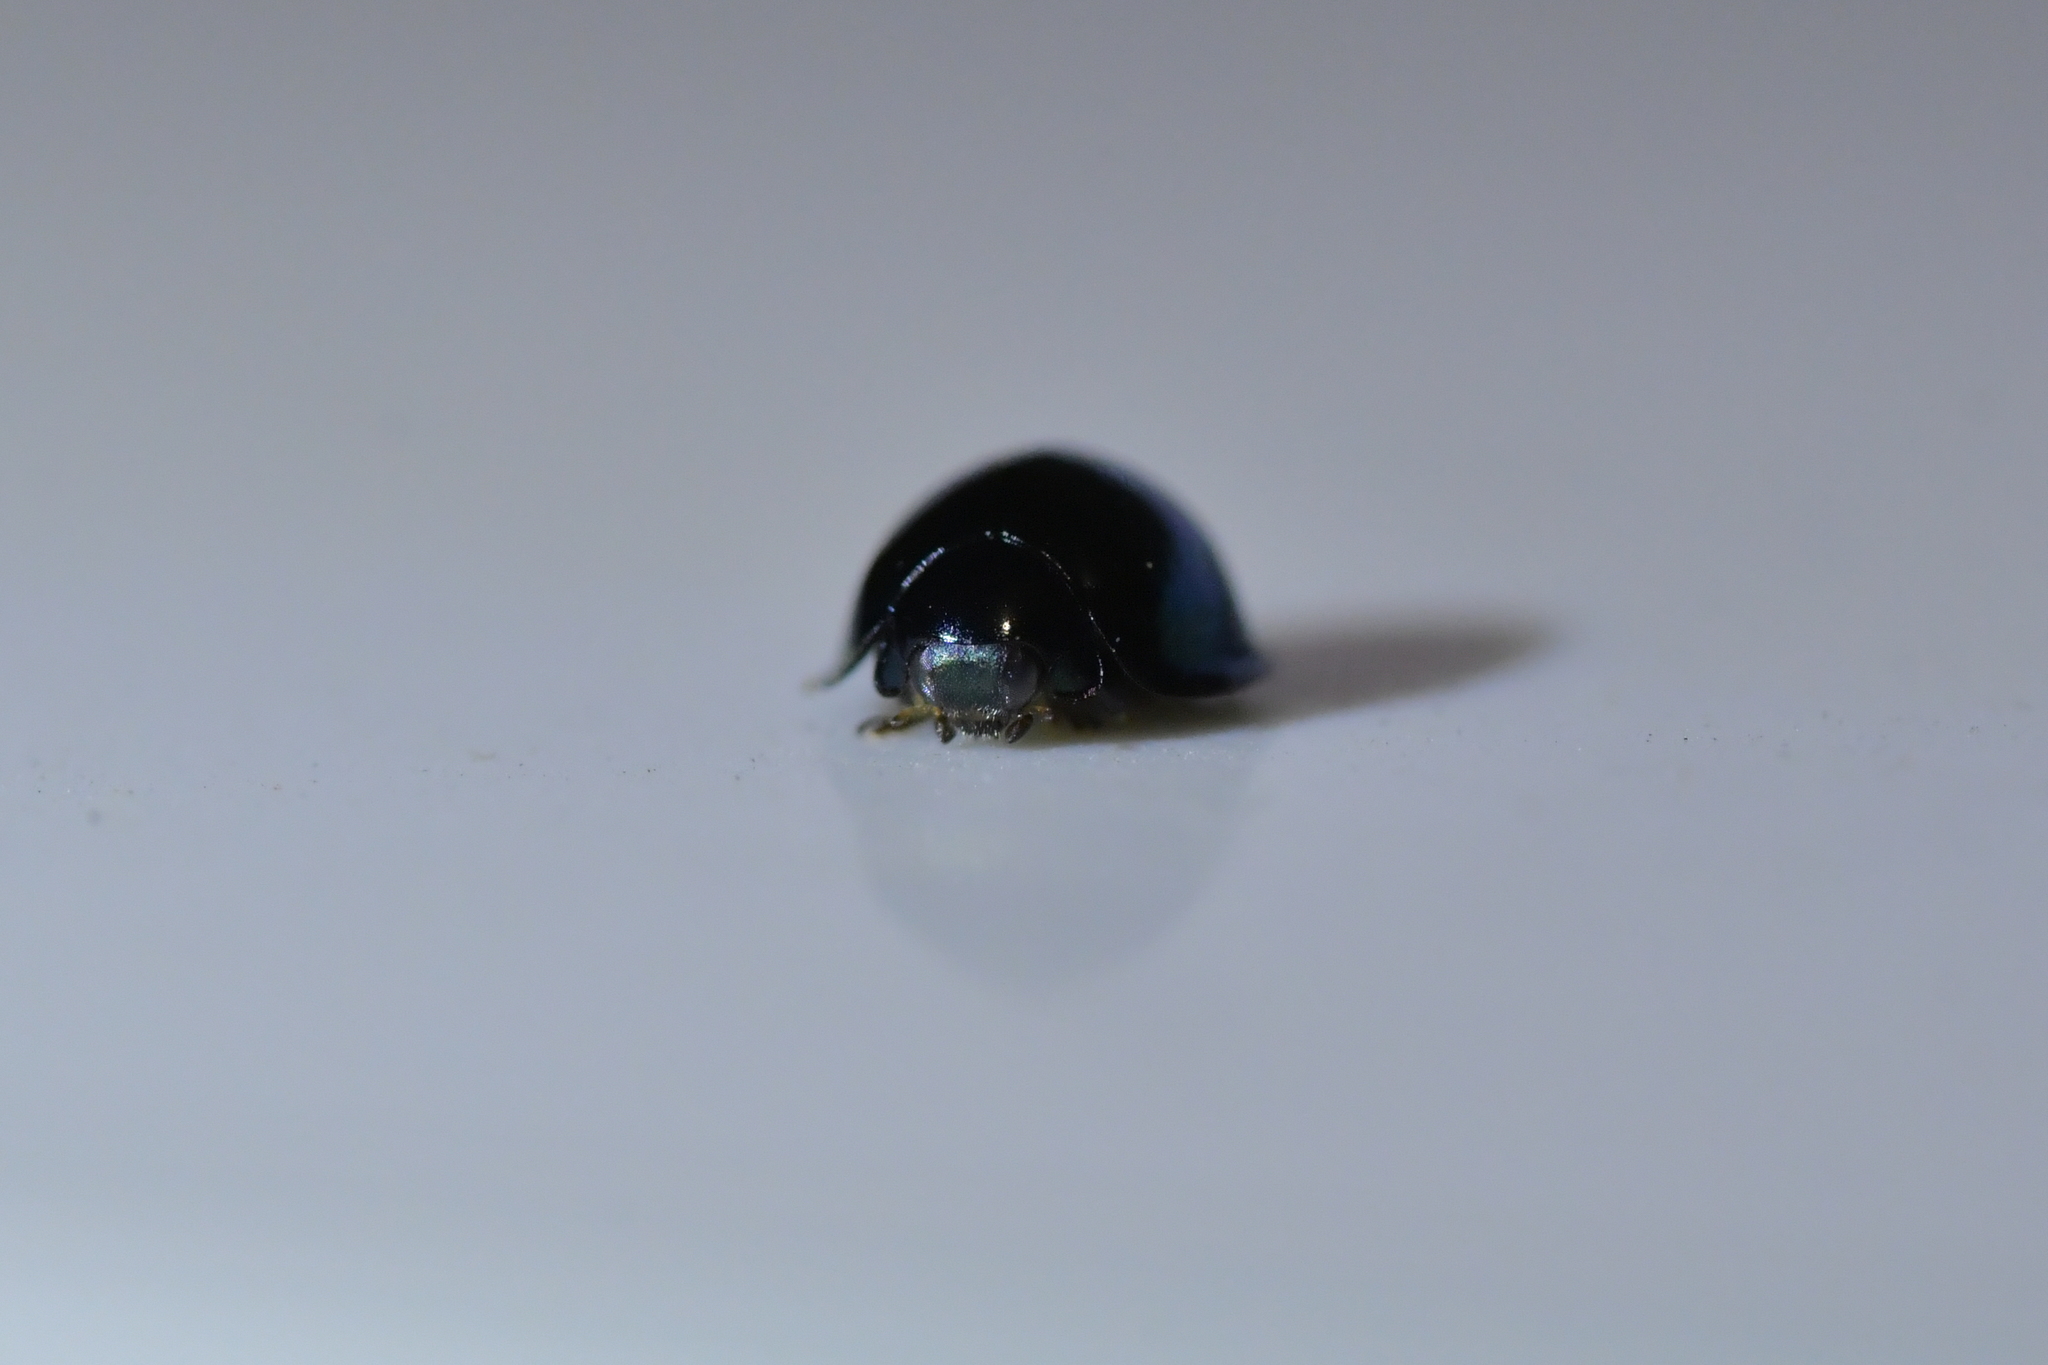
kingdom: Animalia
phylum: Arthropoda
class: Insecta
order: Coleoptera
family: Coccinellidae
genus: Halmus
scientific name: Halmus chalybeus
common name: Steel blue ladybird beetle
